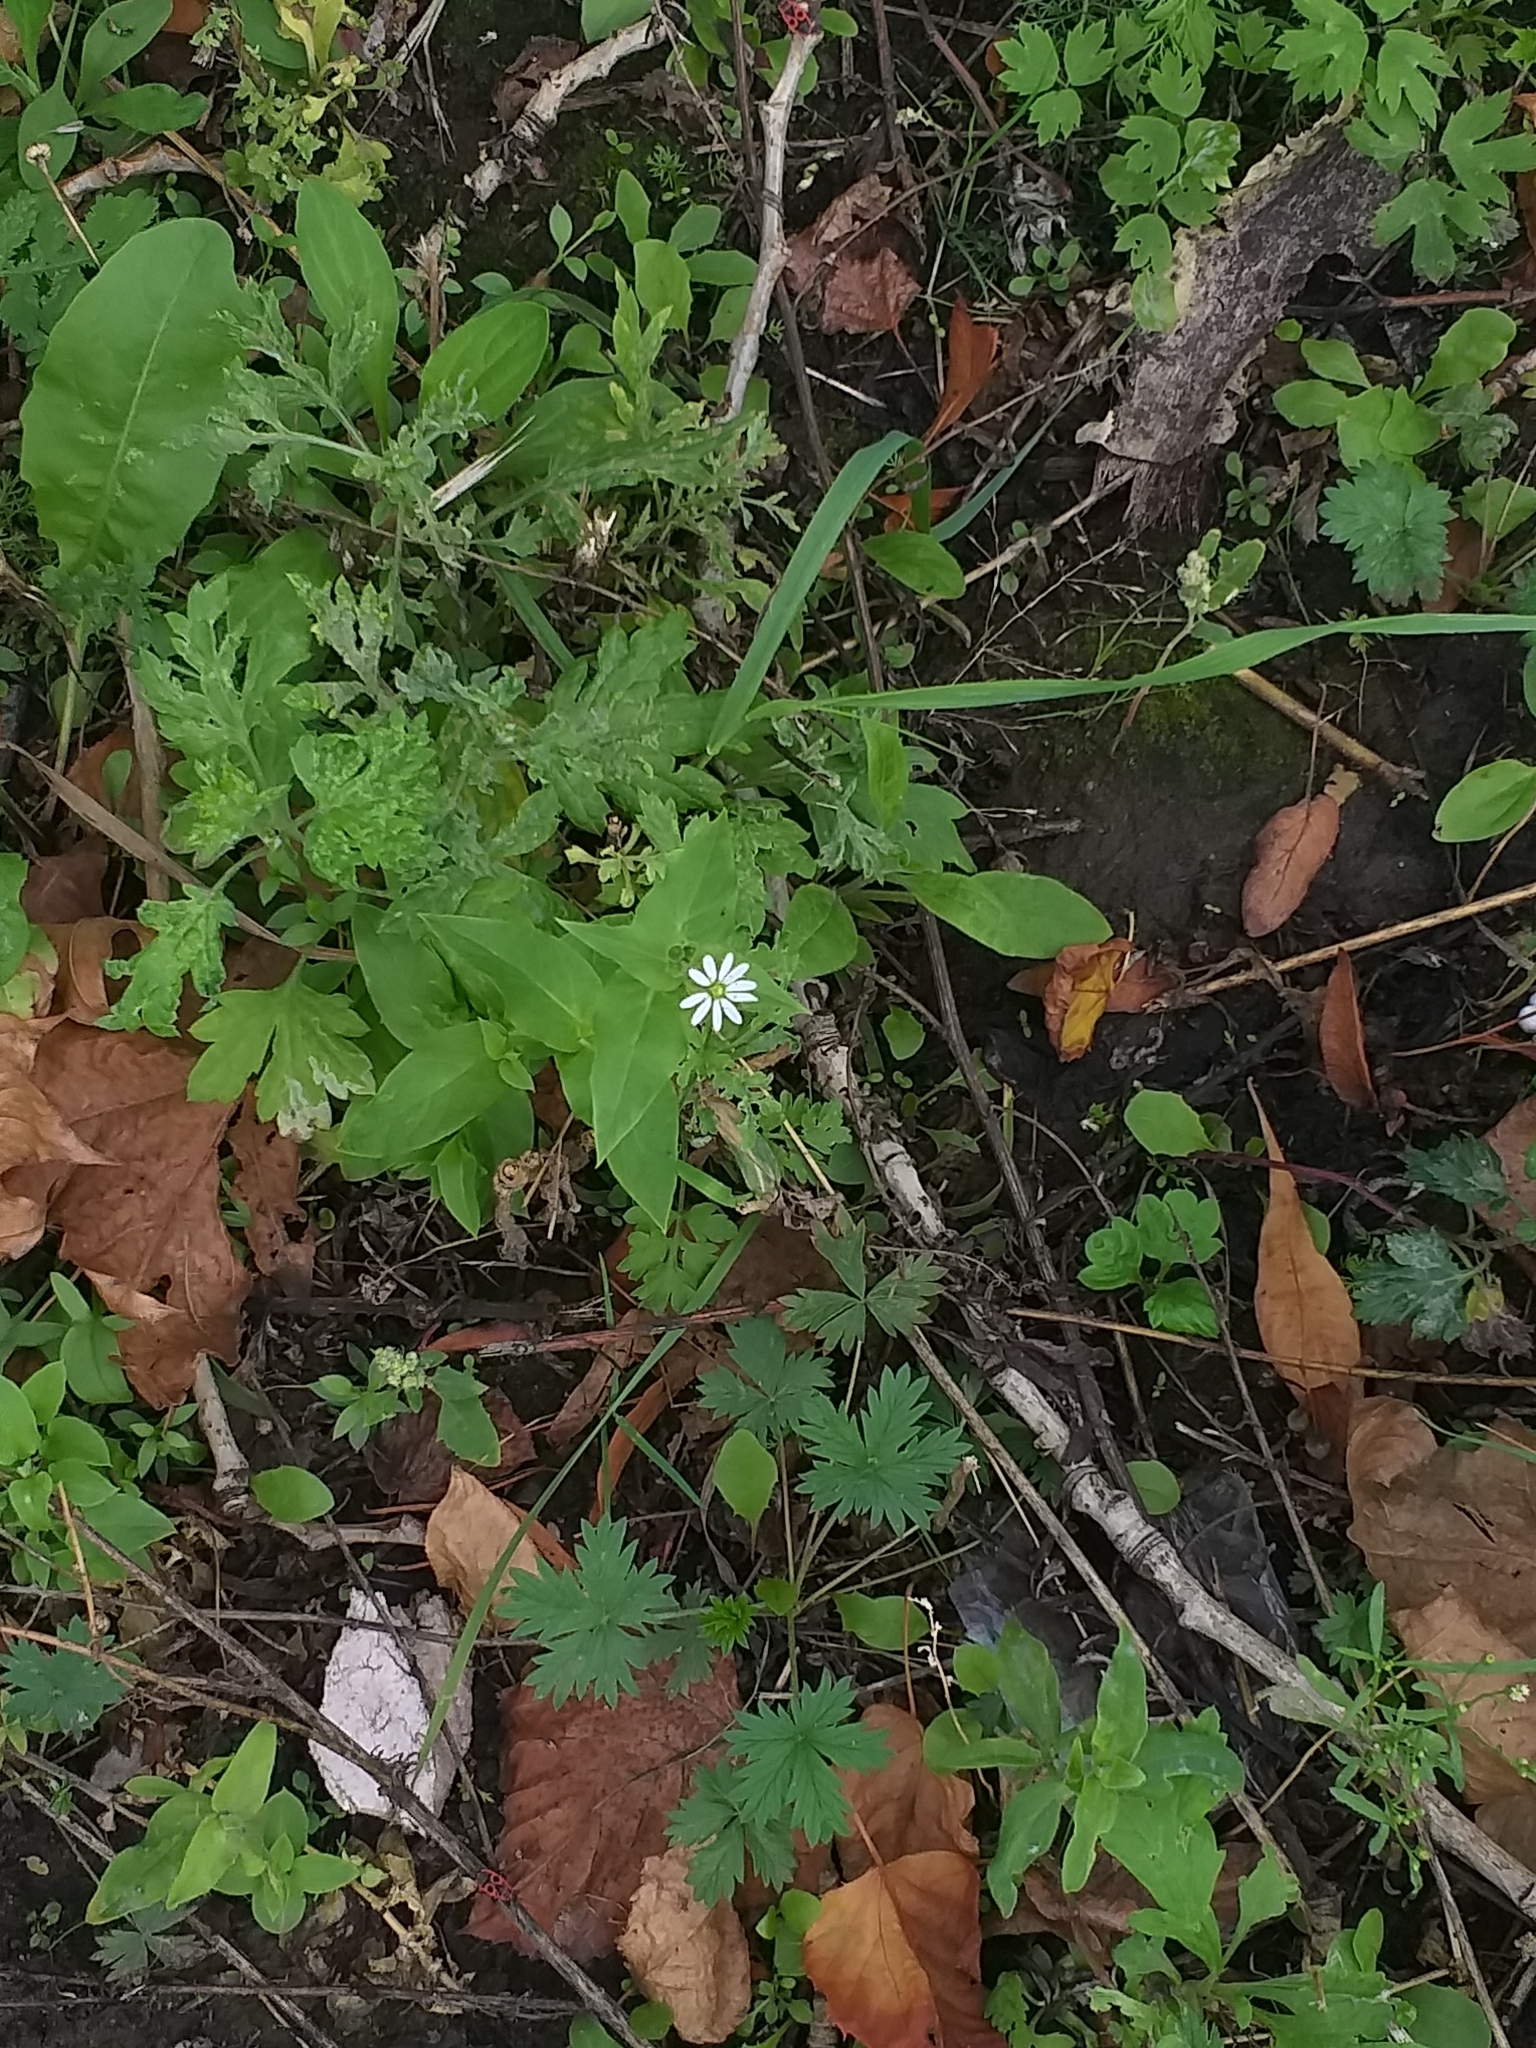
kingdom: Plantae
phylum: Tracheophyta
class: Magnoliopsida
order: Caryophyllales
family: Caryophyllaceae
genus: Stellaria
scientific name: Stellaria aquatica
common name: Water chickweed
